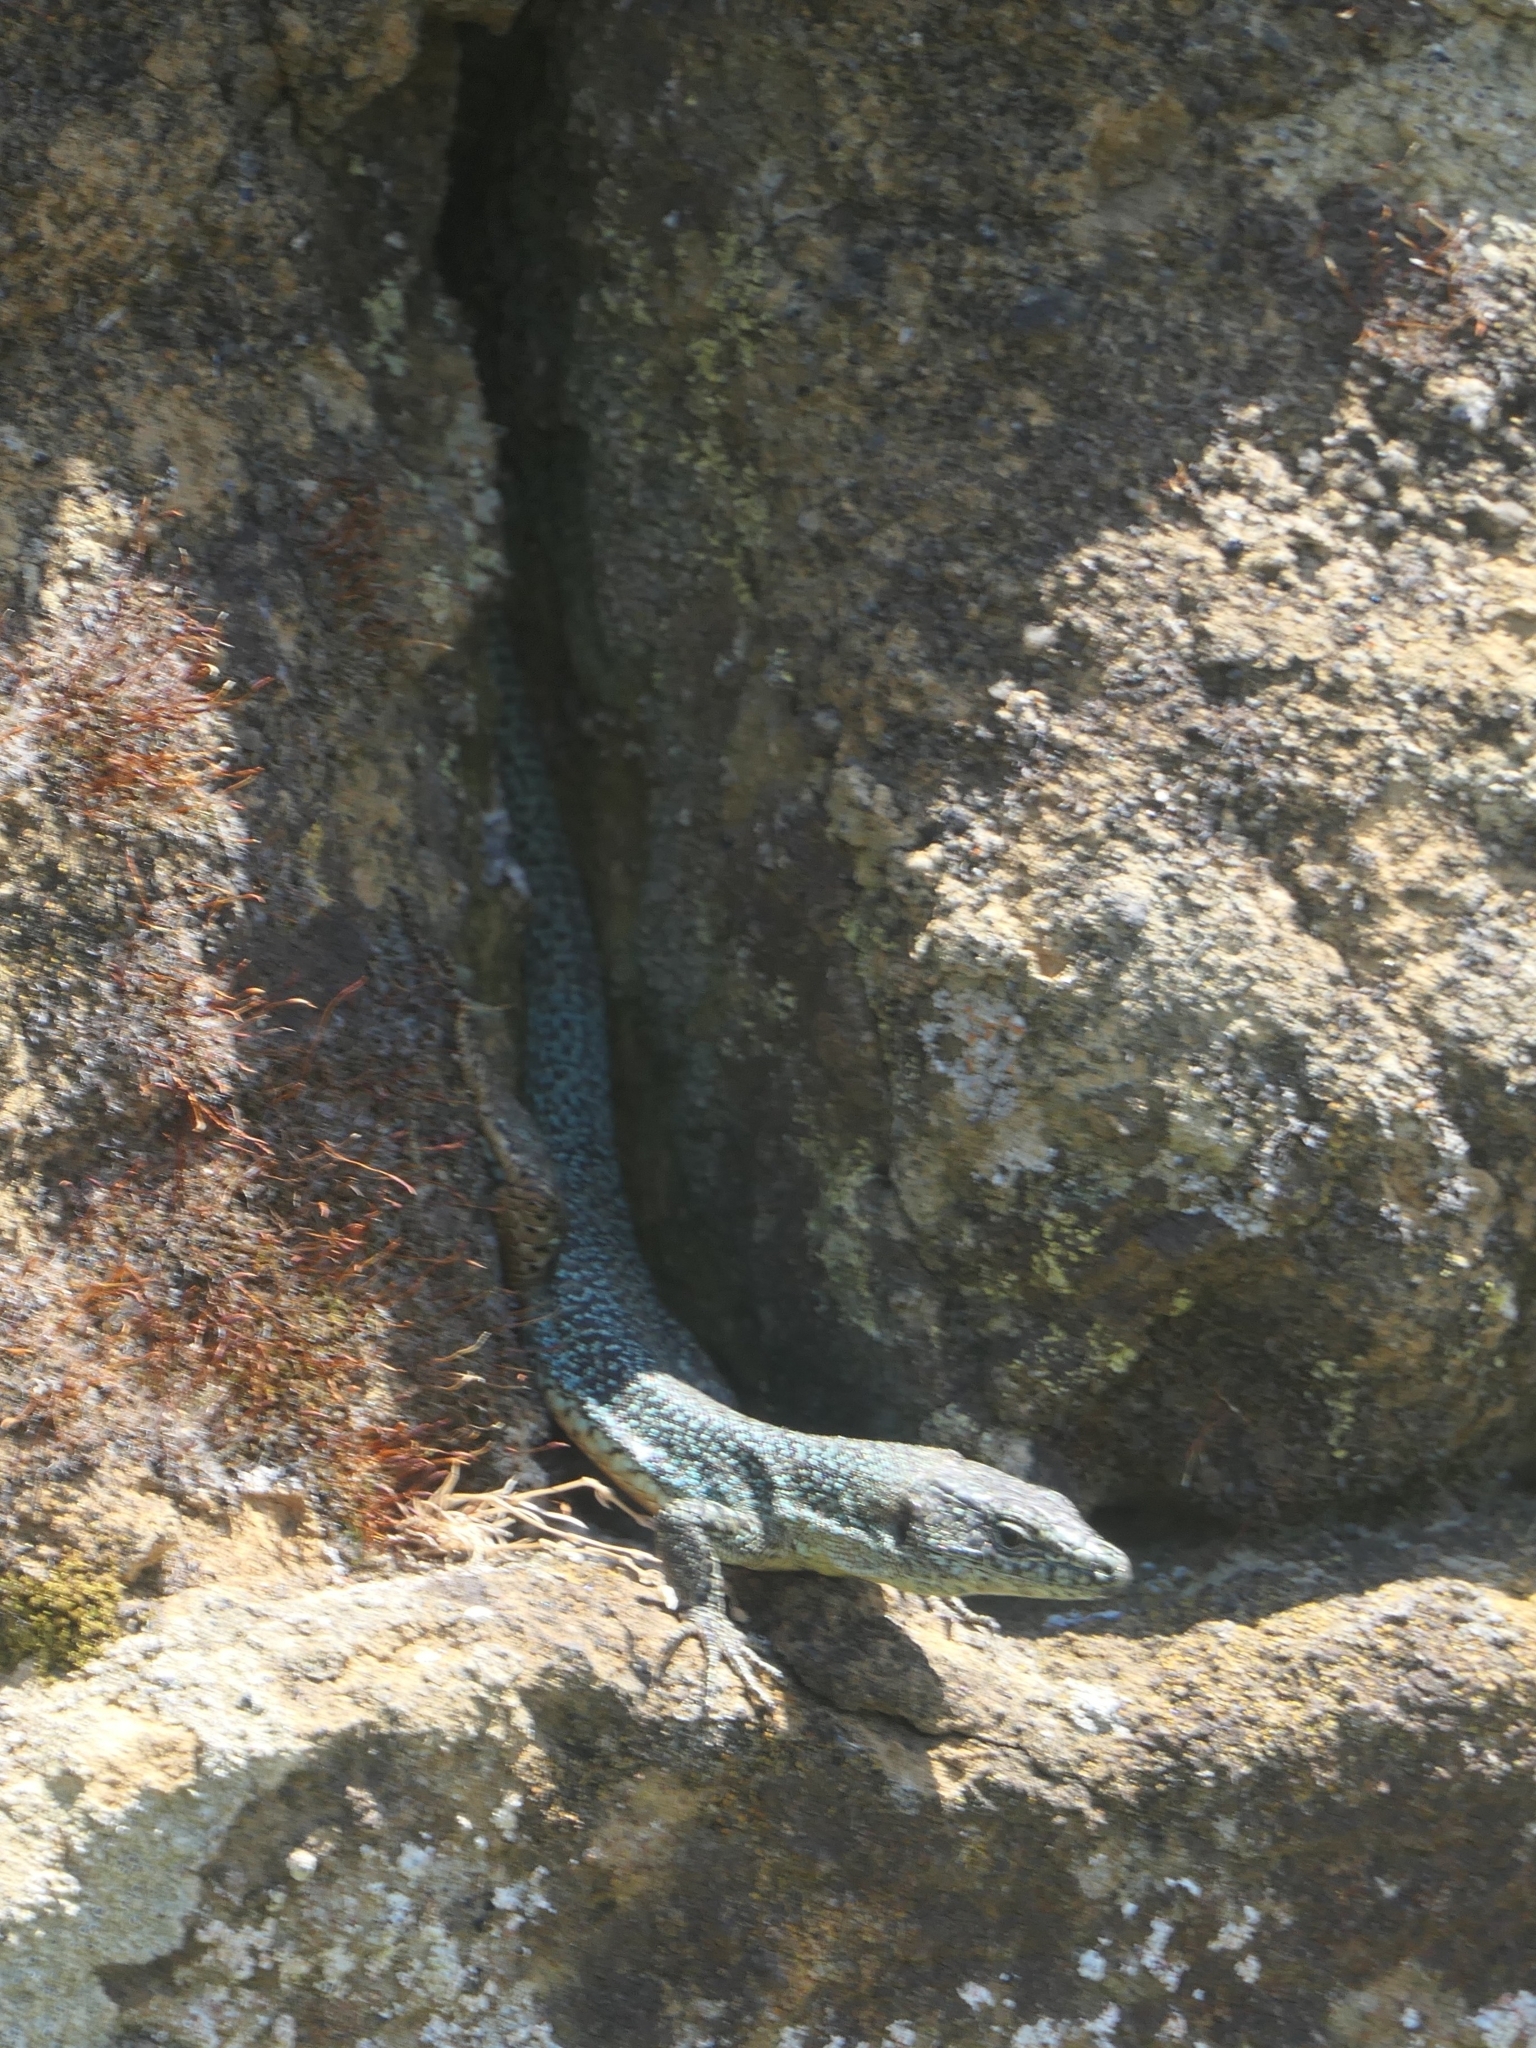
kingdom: Animalia
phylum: Chordata
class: Squamata
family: Lacertidae
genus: Teira
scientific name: Teira dugesii
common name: Madeira lizard
